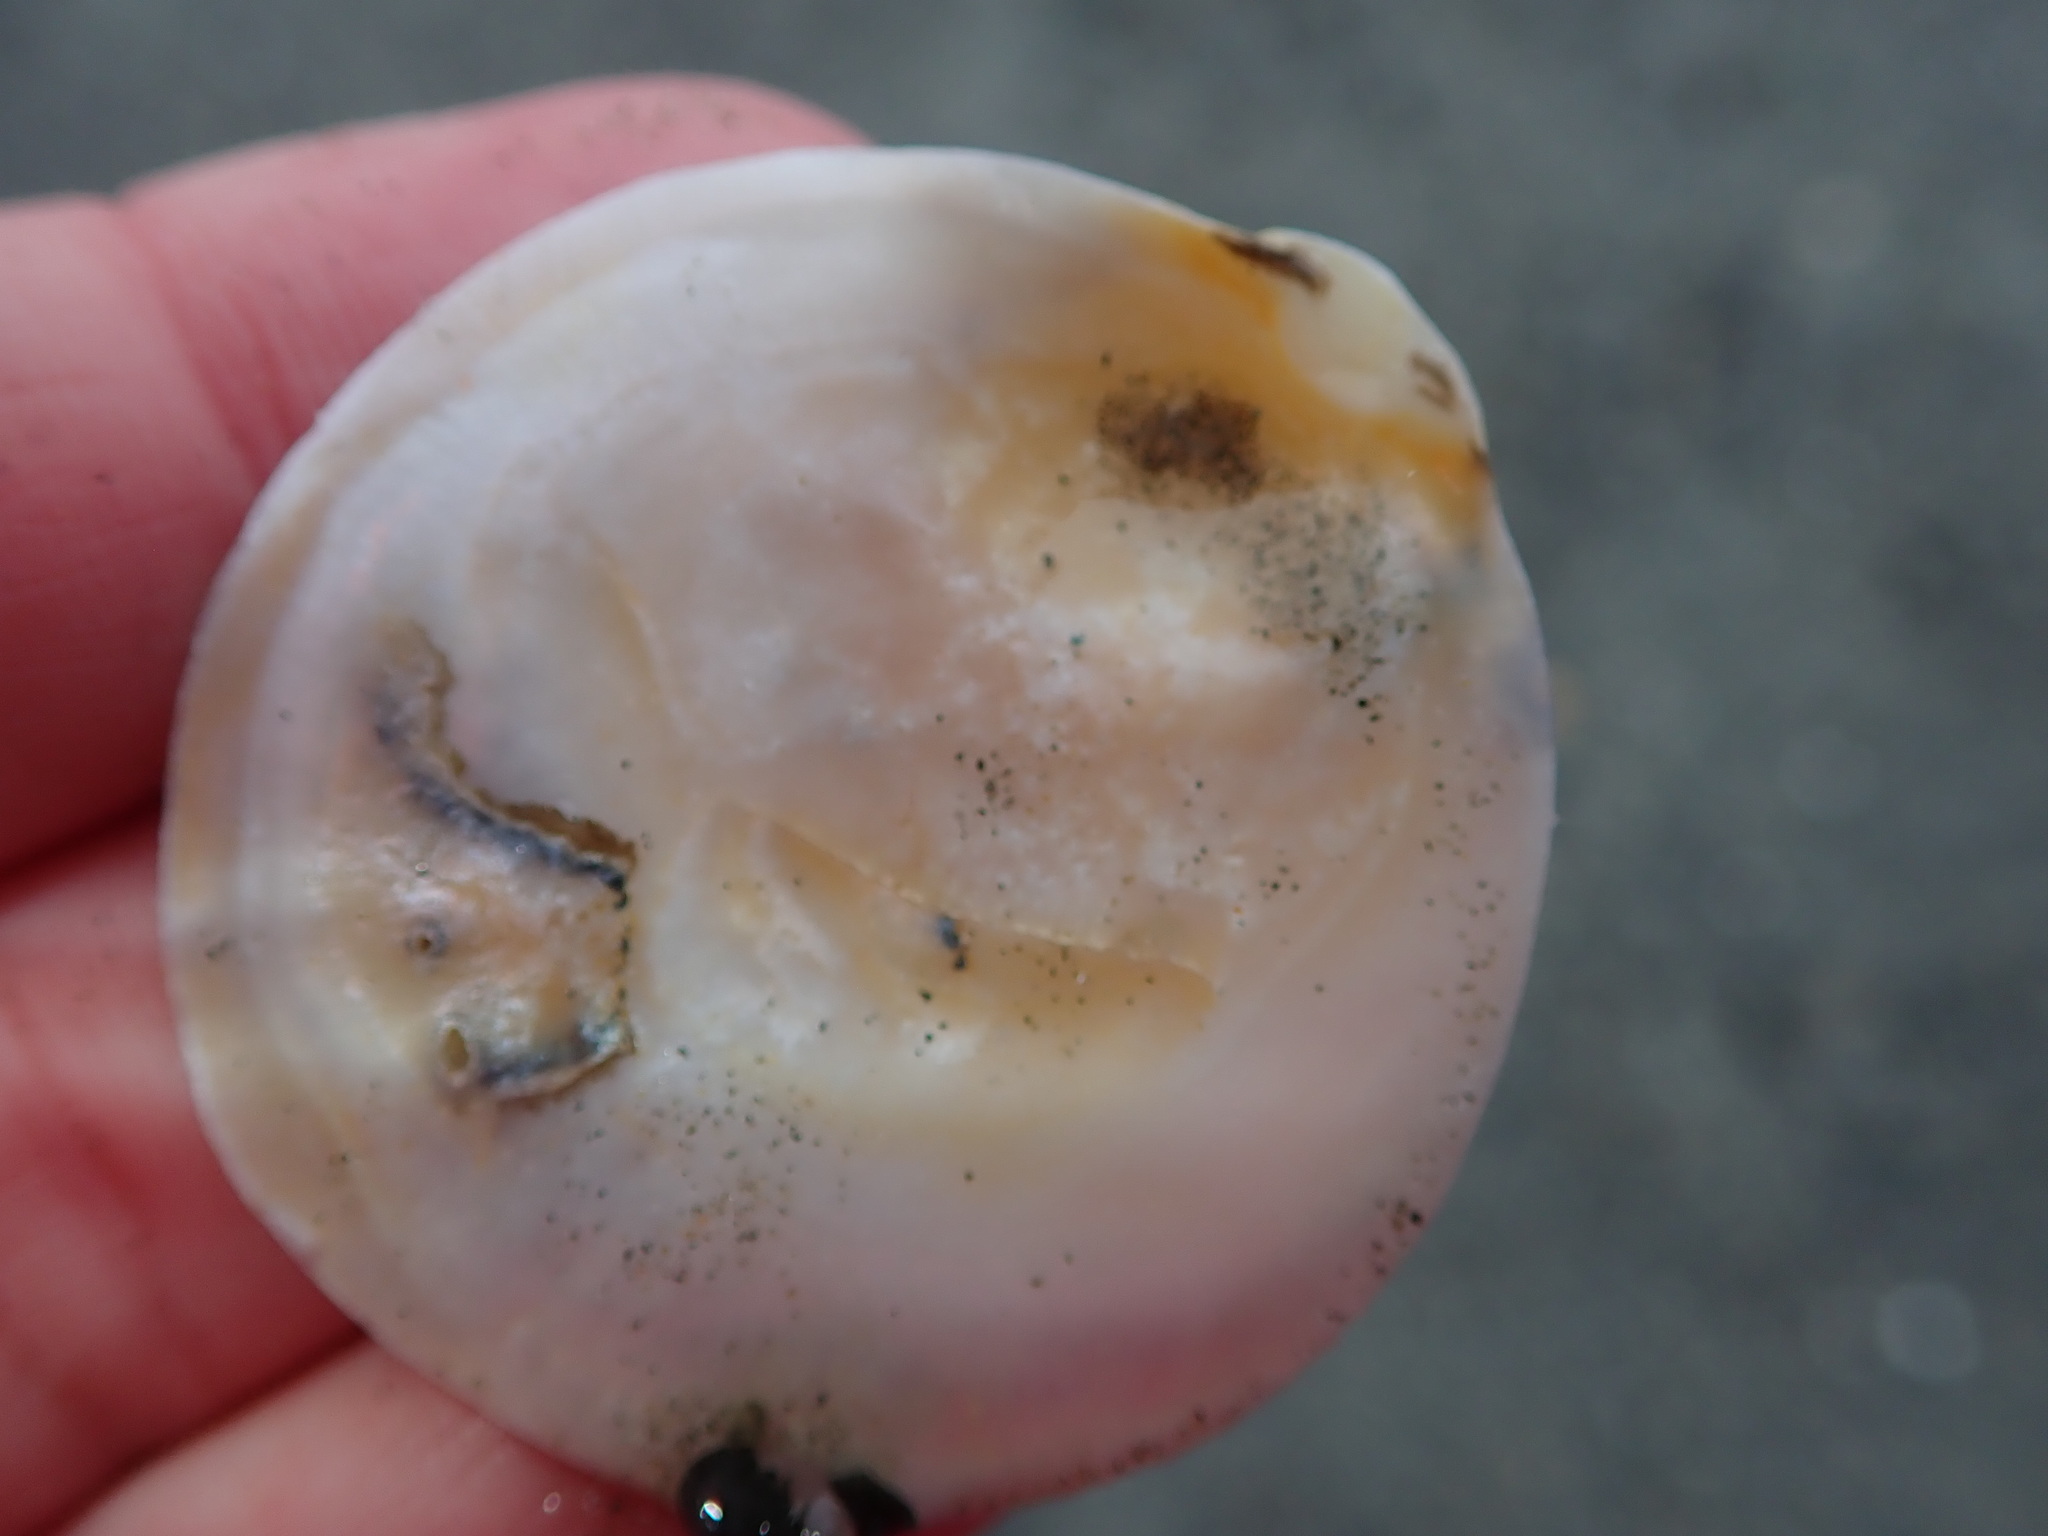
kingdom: Animalia
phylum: Mollusca
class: Bivalvia
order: Ostreida
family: Ostreidae
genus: Ostrea
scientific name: Ostrea edulis
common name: Flat oyster
